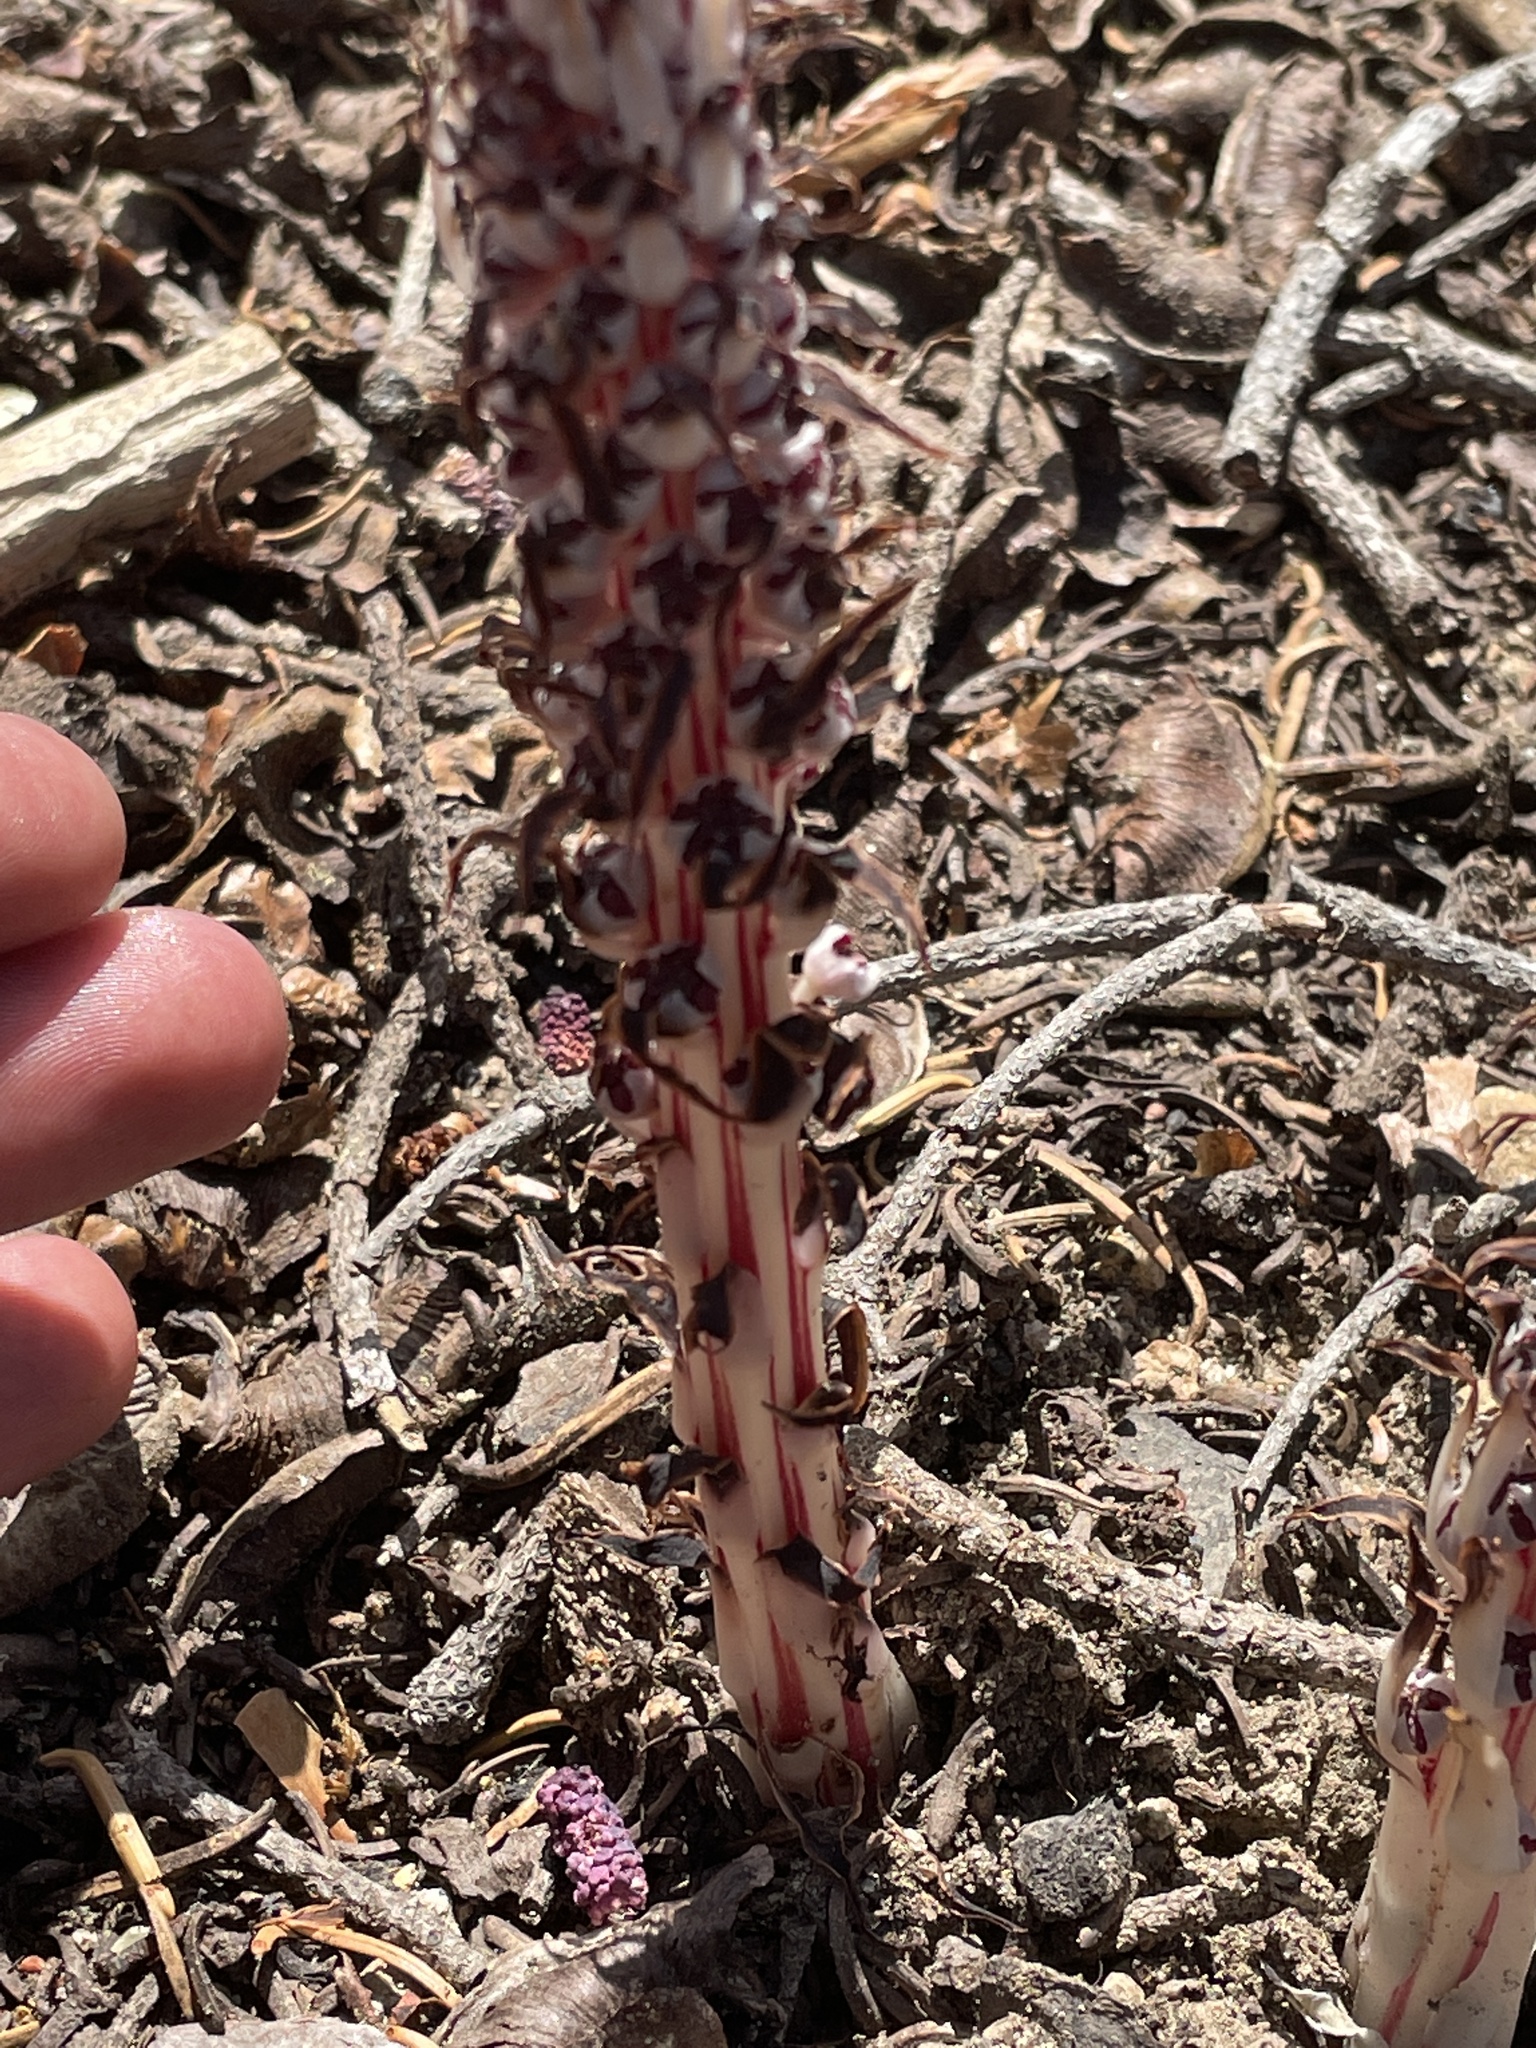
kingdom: Plantae
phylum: Tracheophyta
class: Magnoliopsida
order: Ericales
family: Ericaceae
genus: Allotropa
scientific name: Allotropa virgata
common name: Candy-striped allotropa
